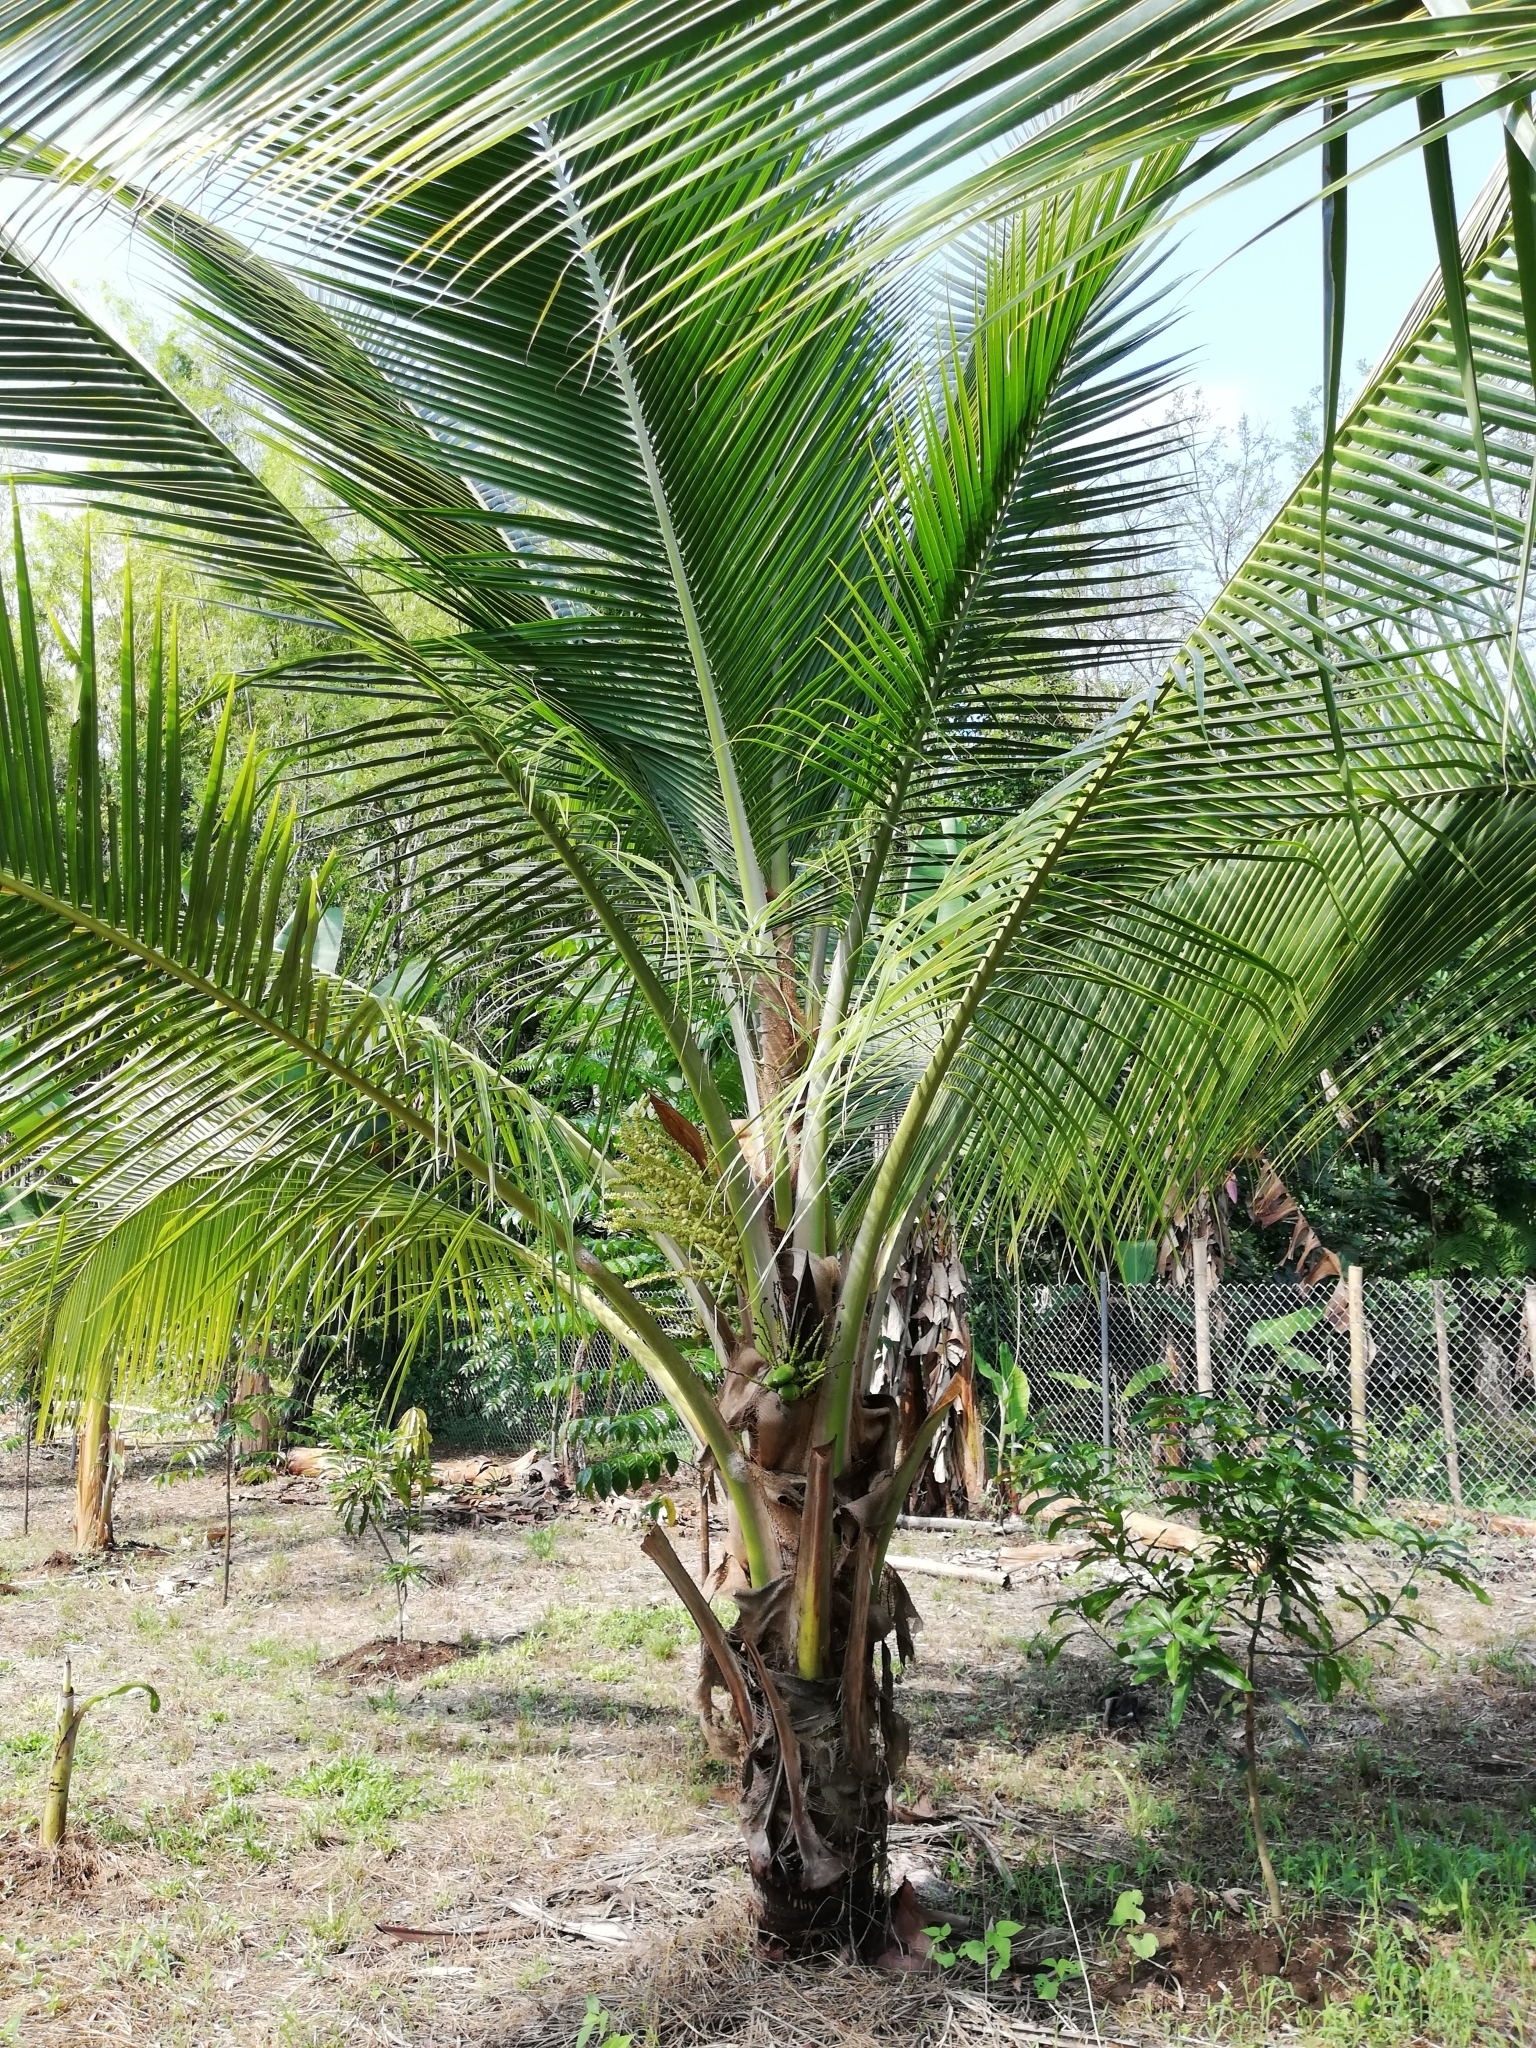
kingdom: Plantae
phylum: Tracheophyta
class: Liliopsida
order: Arecales
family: Arecaceae
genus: Cocos
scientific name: Cocos nucifera
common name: Coconut palm
